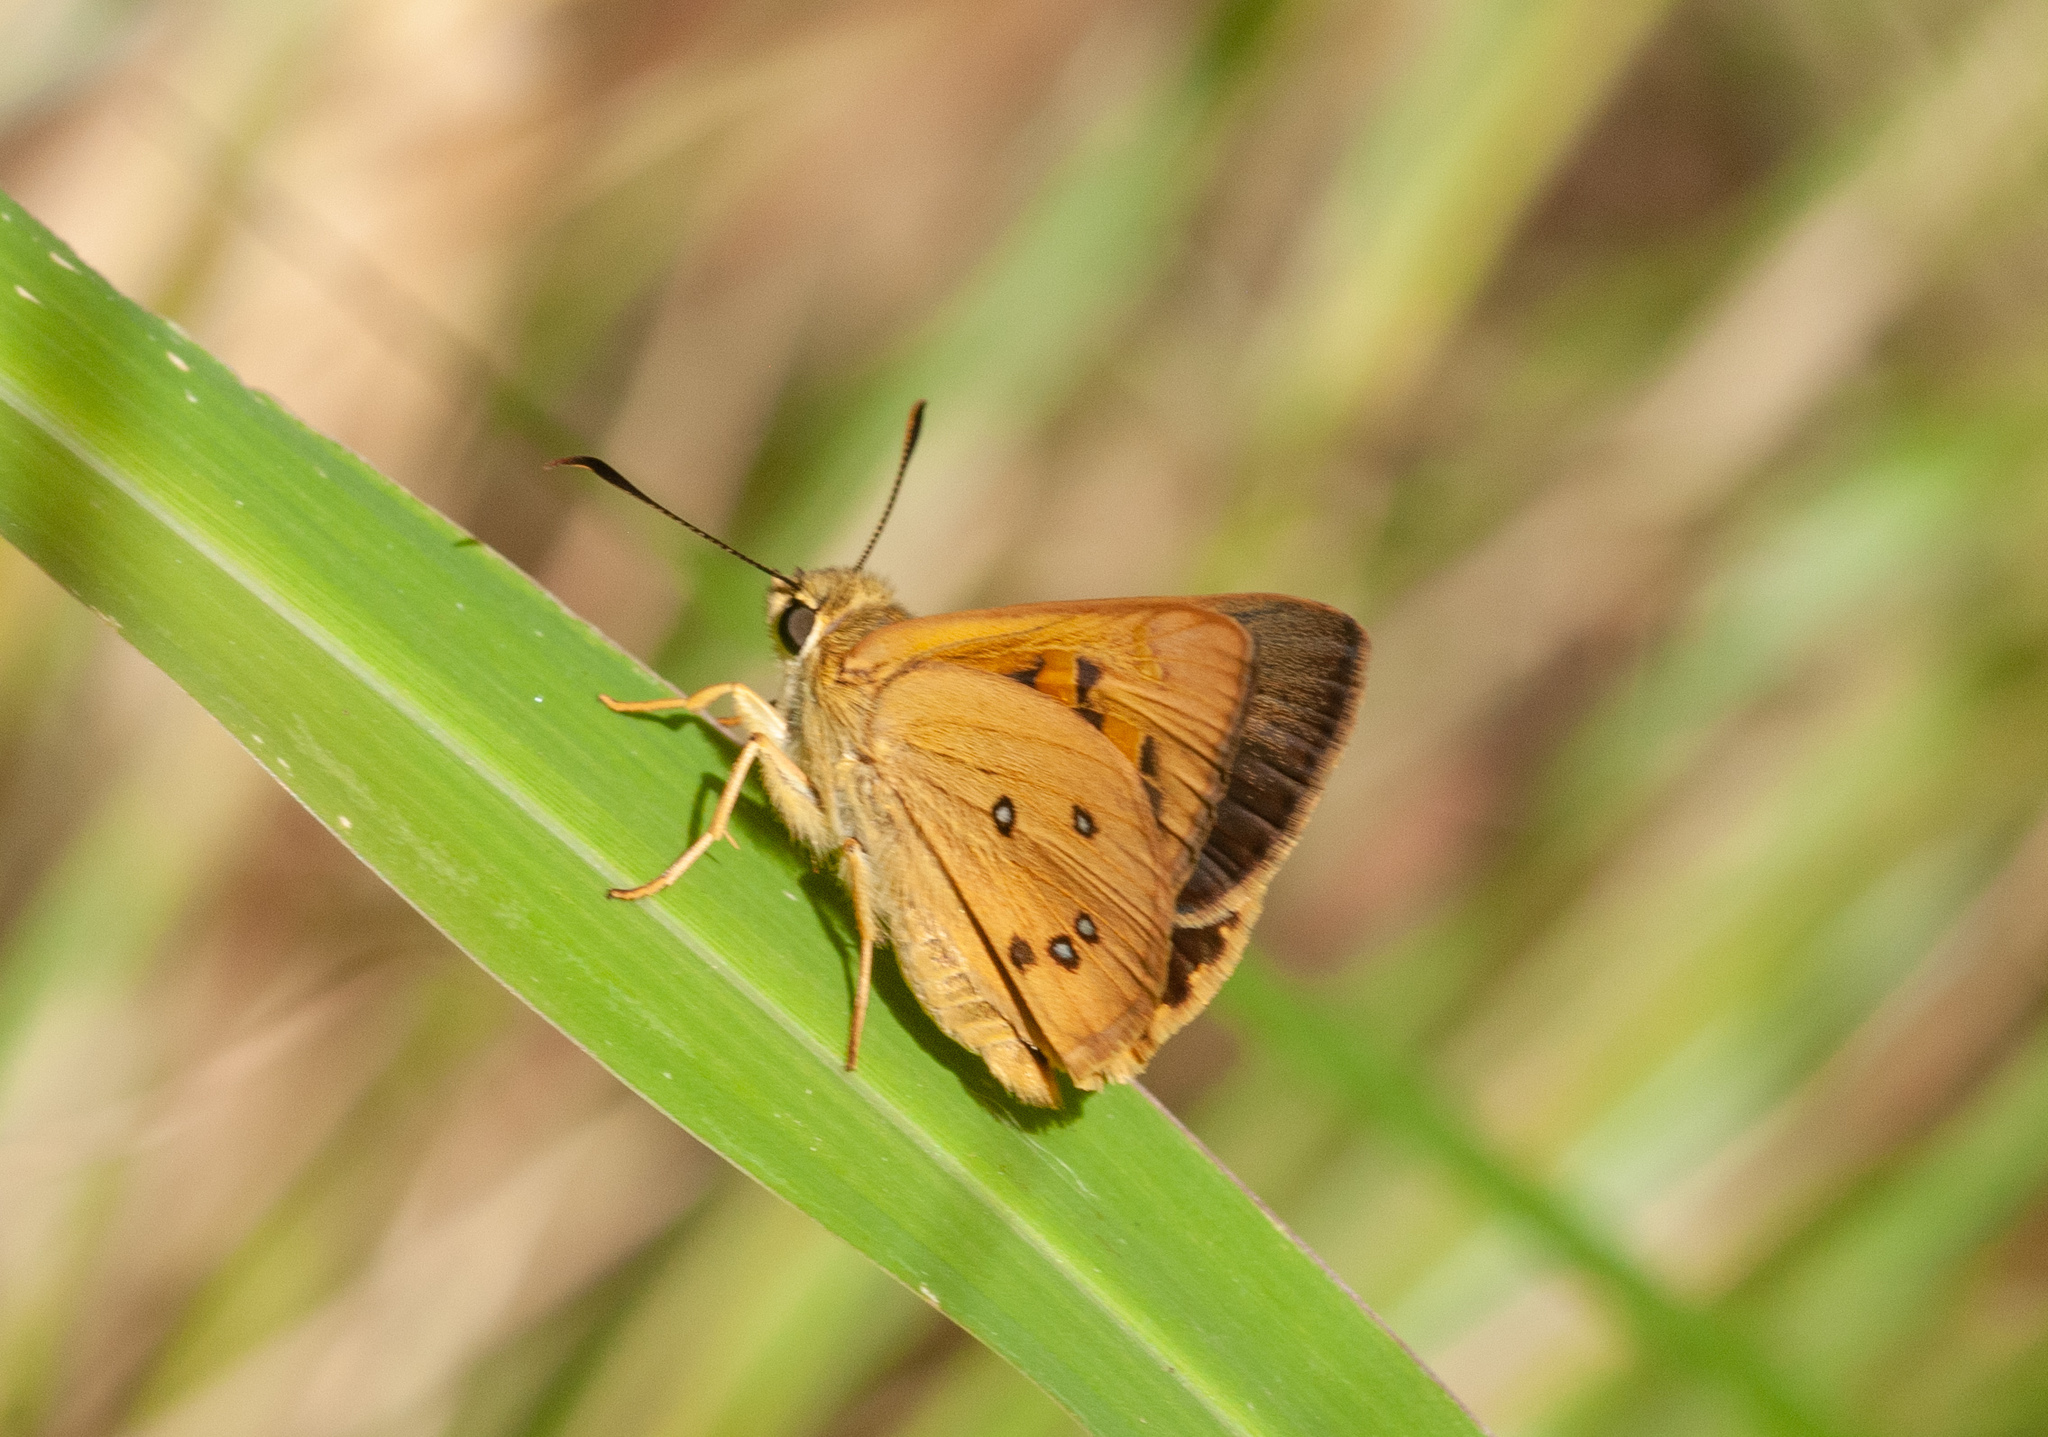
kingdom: Animalia
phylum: Arthropoda
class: Insecta
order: Lepidoptera
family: Hesperiidae
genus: Trapezites
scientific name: Trapezites eliena
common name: Eliena skipper
